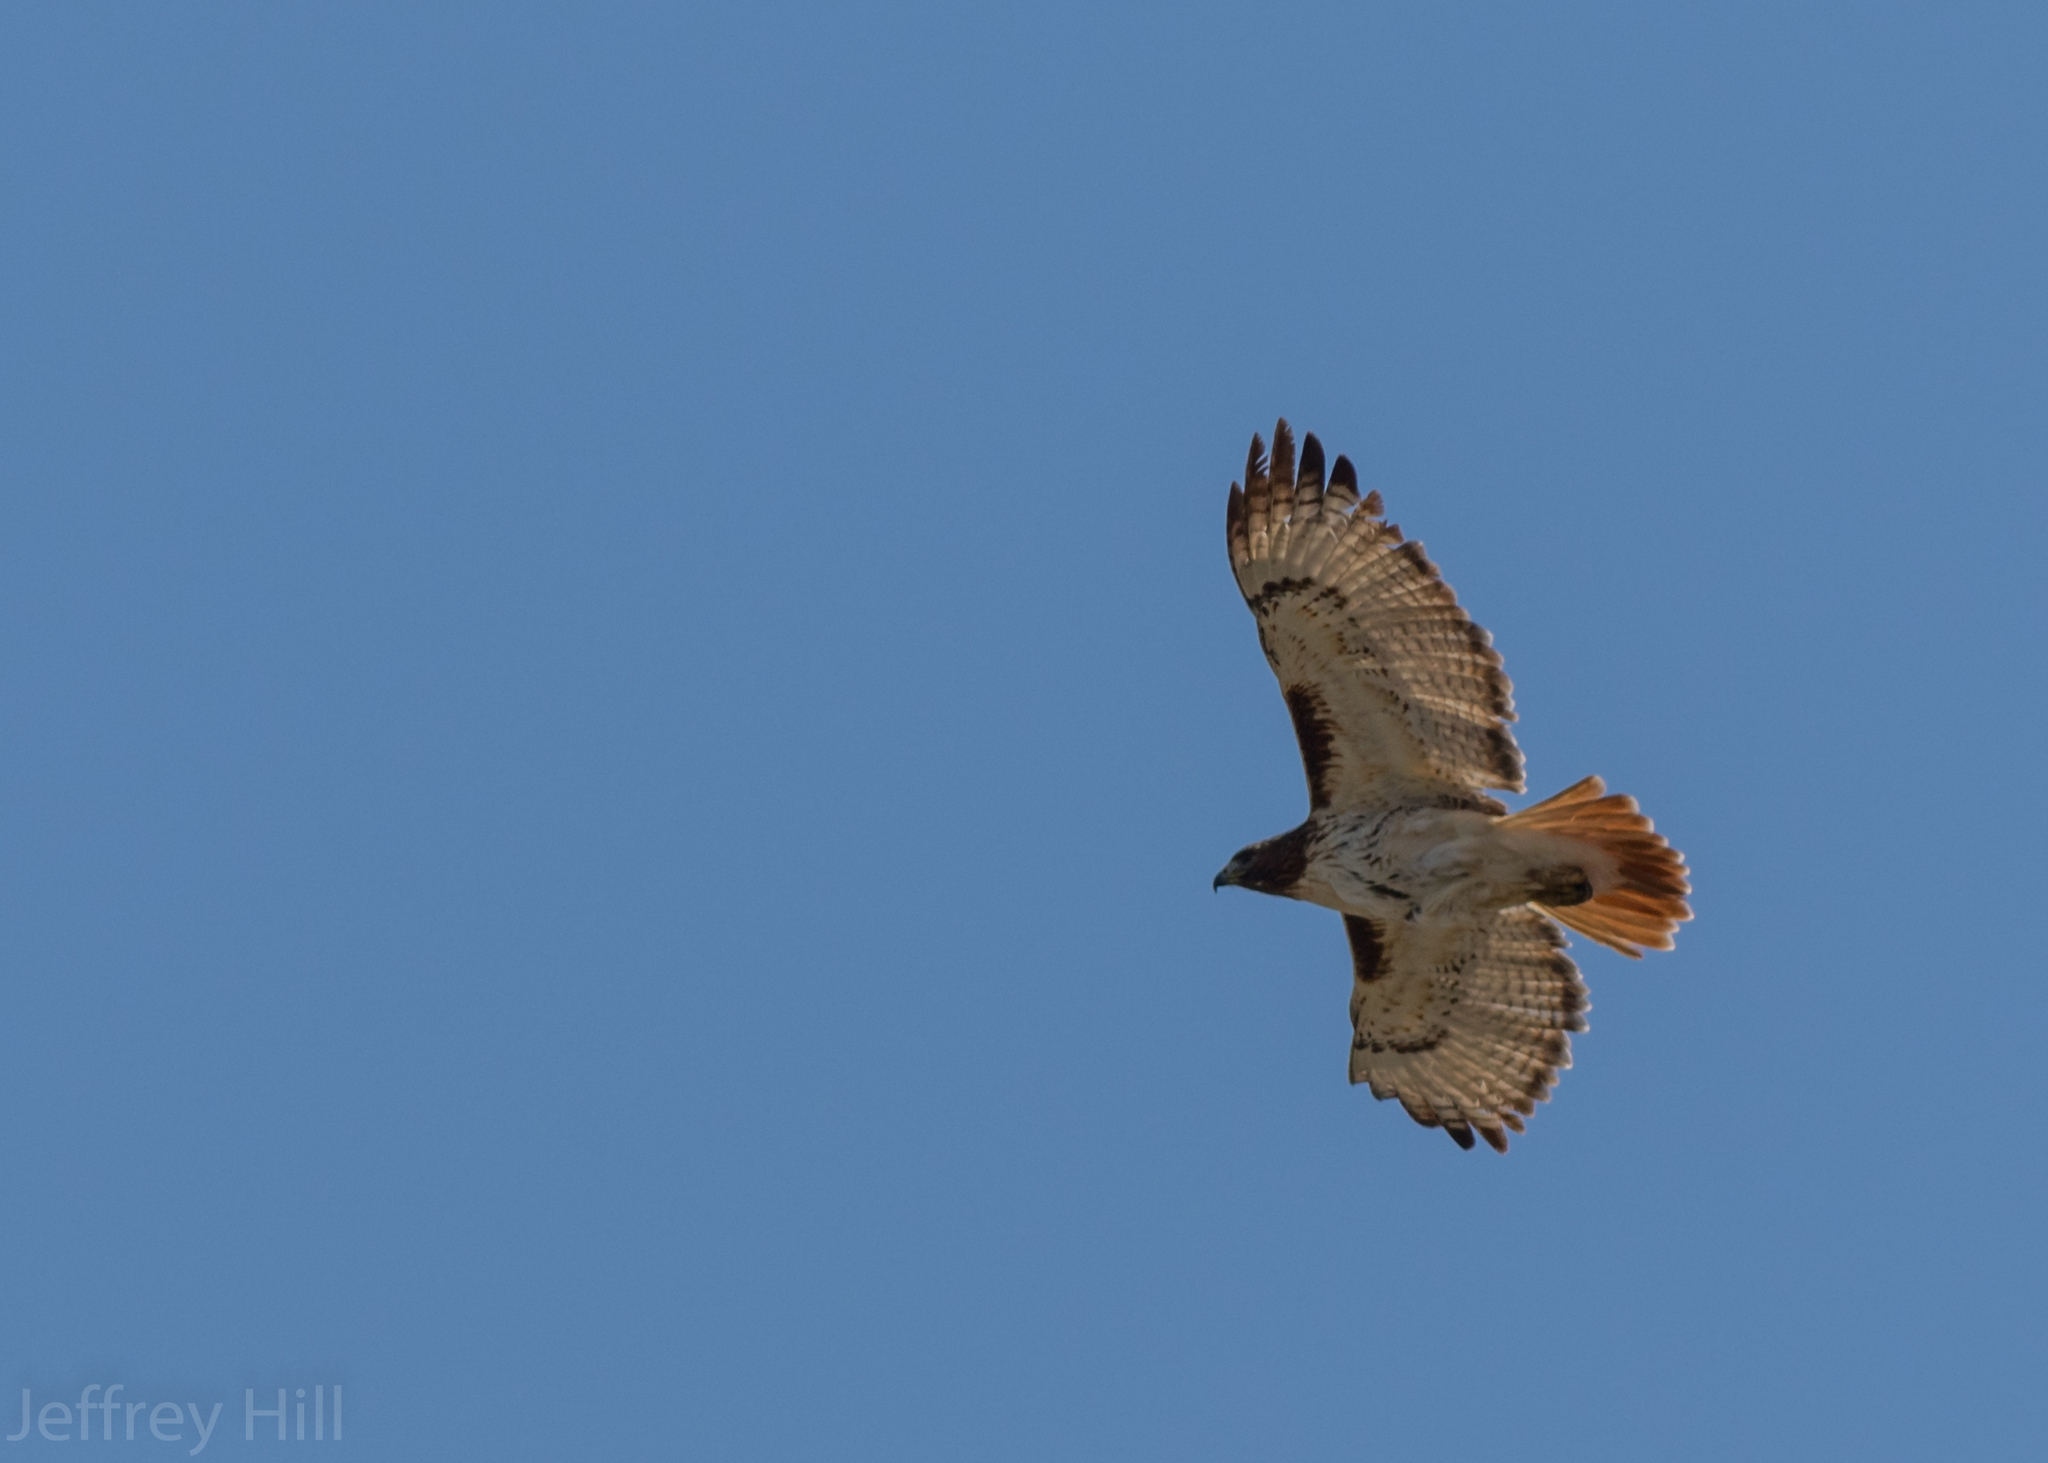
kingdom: Animalia
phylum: Chordata
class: Aves
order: Accipitriformes
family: Accipitridae
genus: Buteo
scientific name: Buteo jamaicensis
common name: Red-tailed hawk
